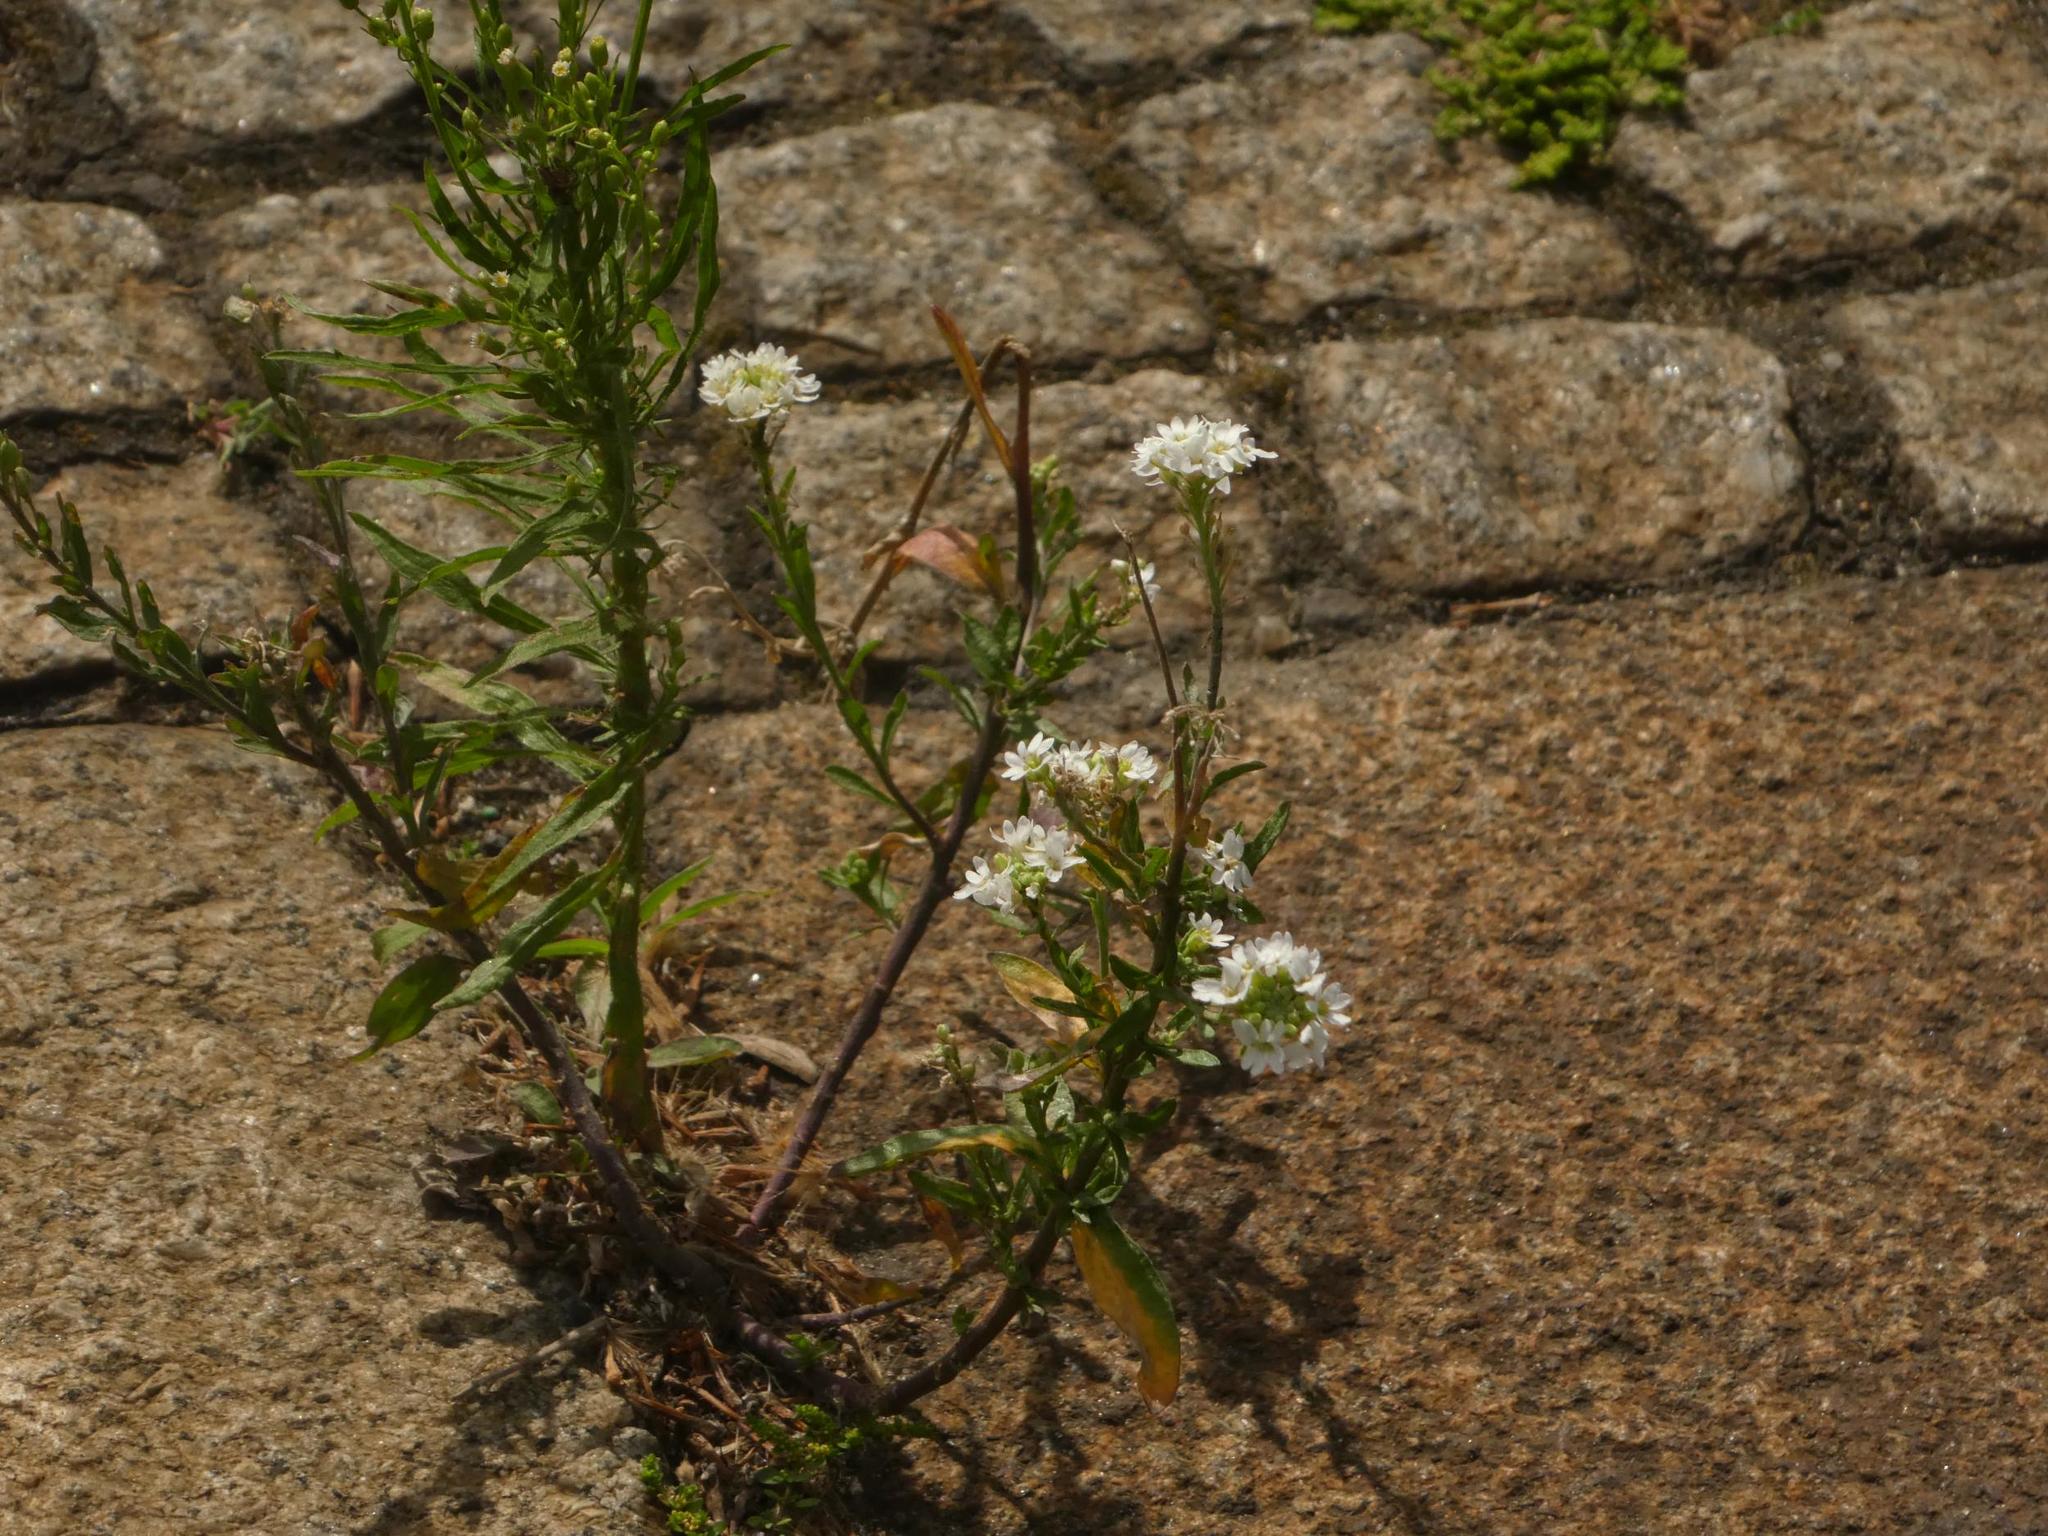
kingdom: Plantae
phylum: Tracheophyta
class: Magnoliopsida
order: Brassicales
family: Brassicaceae
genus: Berteroa
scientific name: Berteroa incana
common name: Hoary alison
